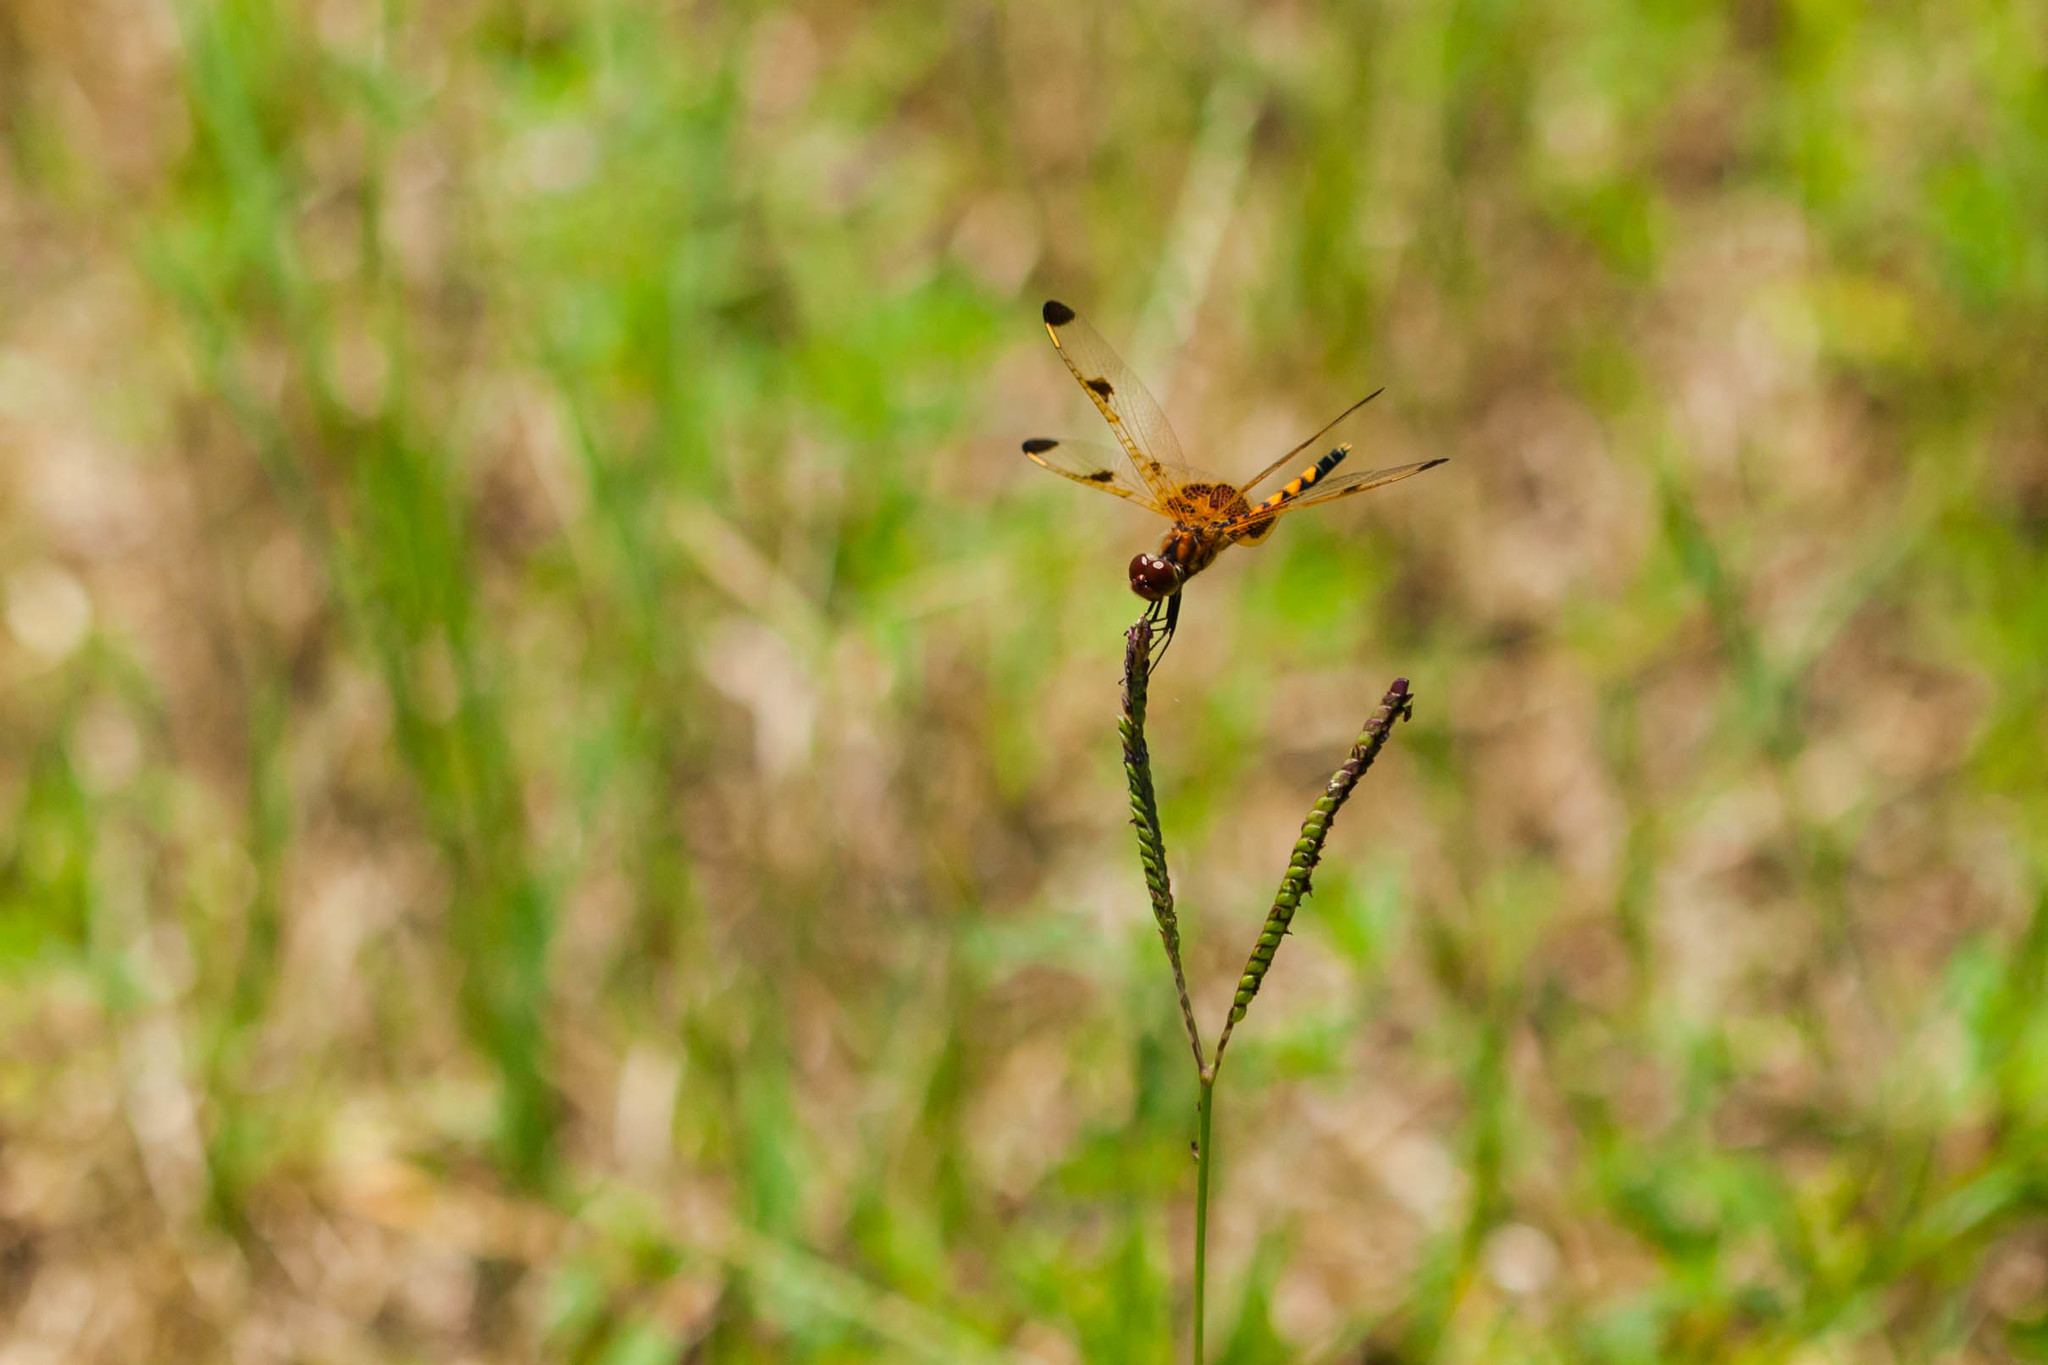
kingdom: Animalia
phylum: Arthropoda
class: Insecta
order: Odonata
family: Libellulidae
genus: Celithemis
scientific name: Celithemis elisa
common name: Calico pennant
